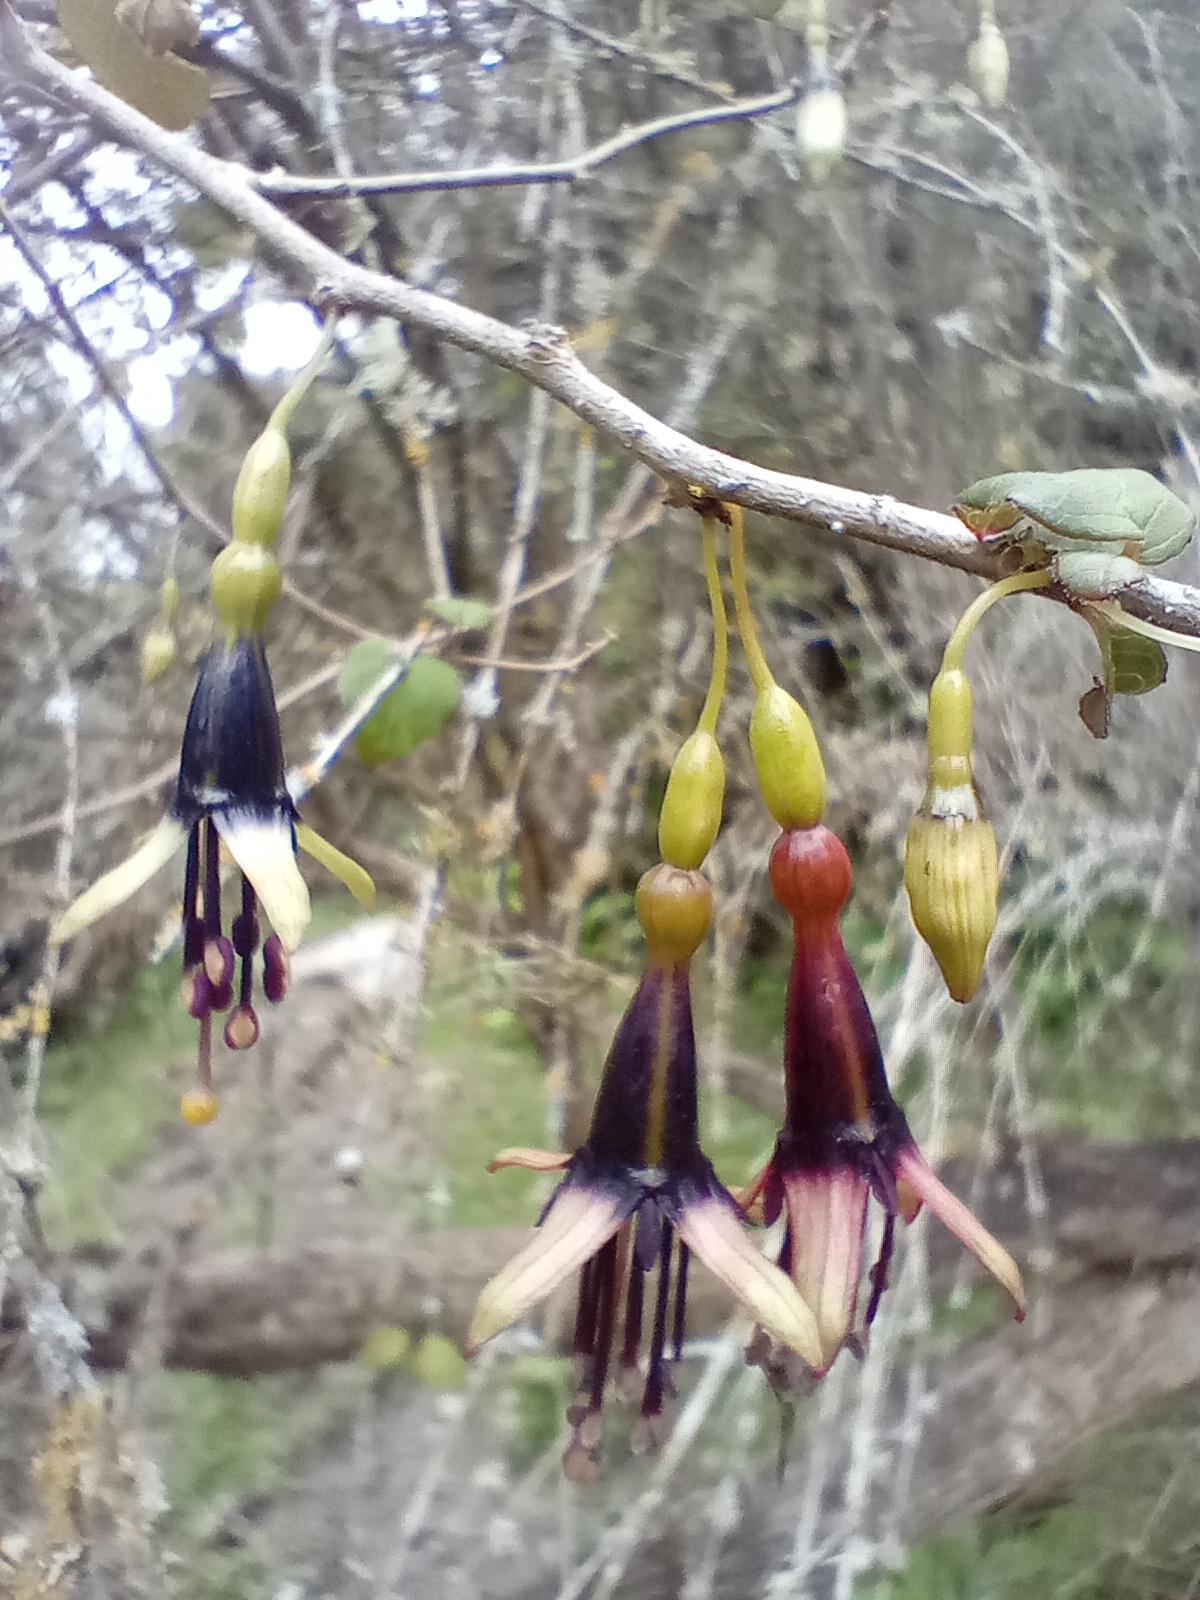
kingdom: Plantae
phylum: Tracheophyta
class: Magnoliopsida
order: Myrtales
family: Onagraceae
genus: Fuchsia
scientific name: Fuchsia colensoi
